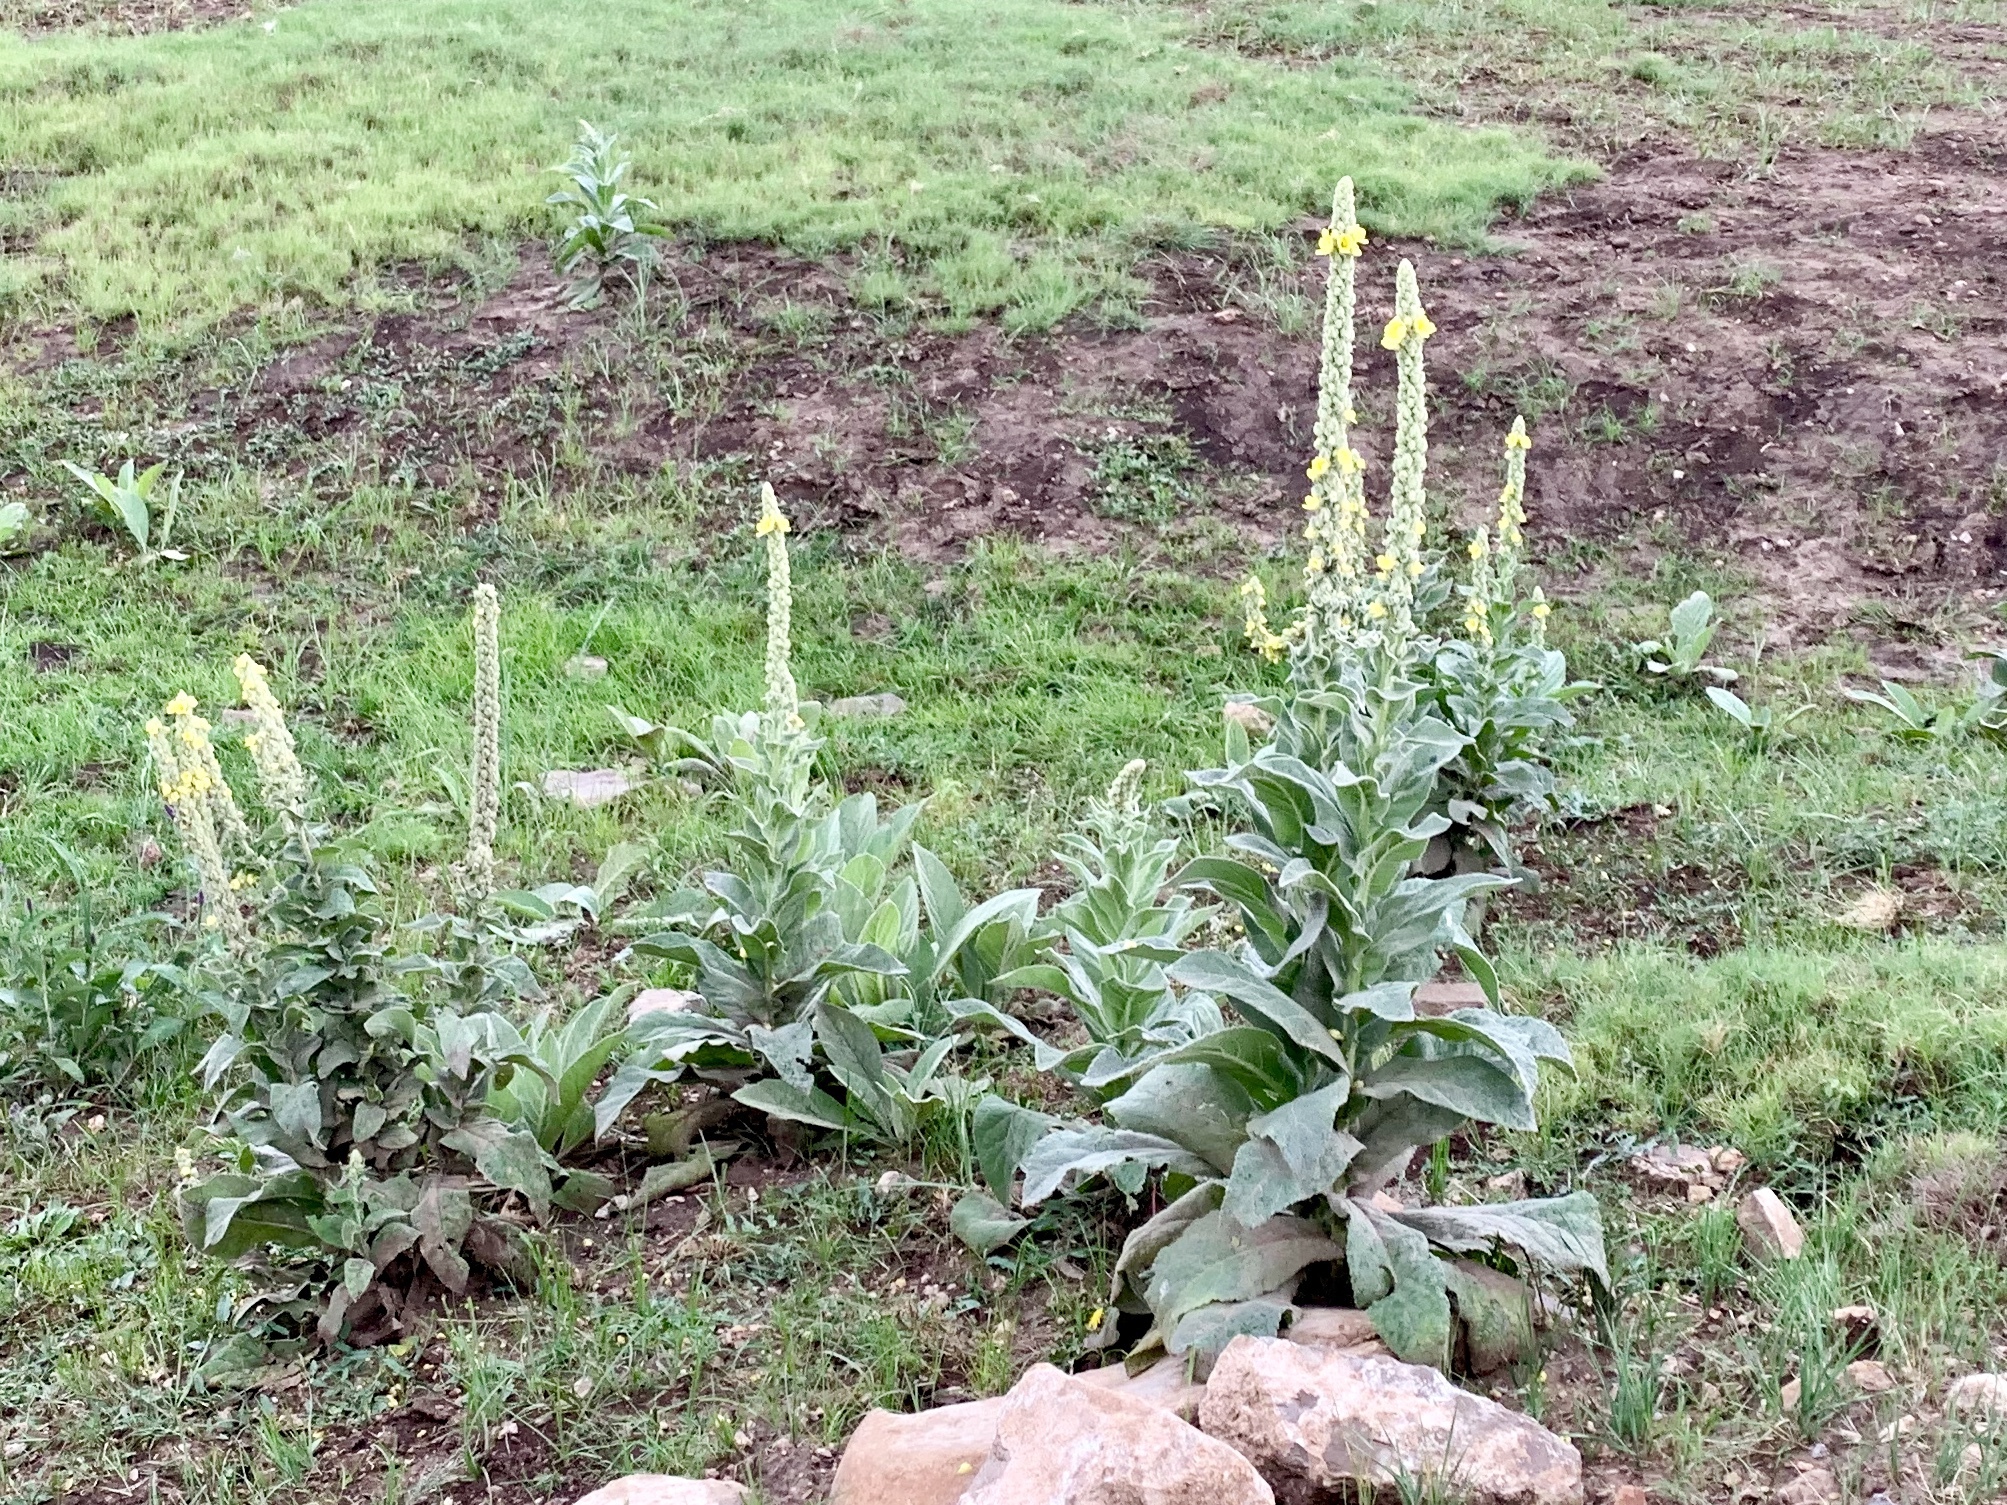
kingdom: Plantae
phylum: Tracheophyta
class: Magnoliopsida
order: Lamiales
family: Scrophulariaceae
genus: Verbascum
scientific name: Verbascum thapsus
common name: Common mullein
